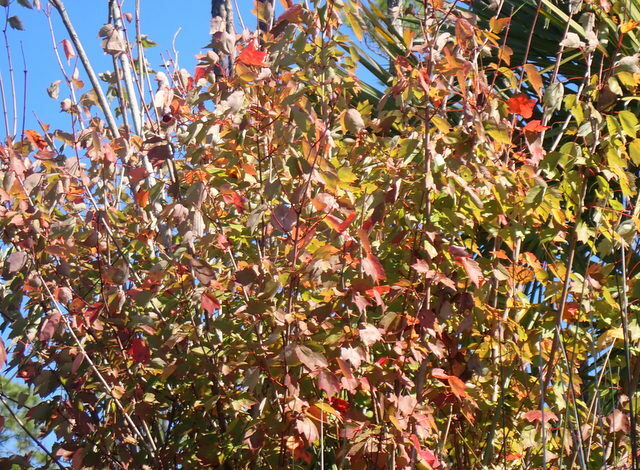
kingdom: Plantae
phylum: Tracheophyta
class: Magnoliopsida
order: Sapindales
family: Sapindaceae
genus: Acer
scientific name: Acer rubrum
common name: Red maple
